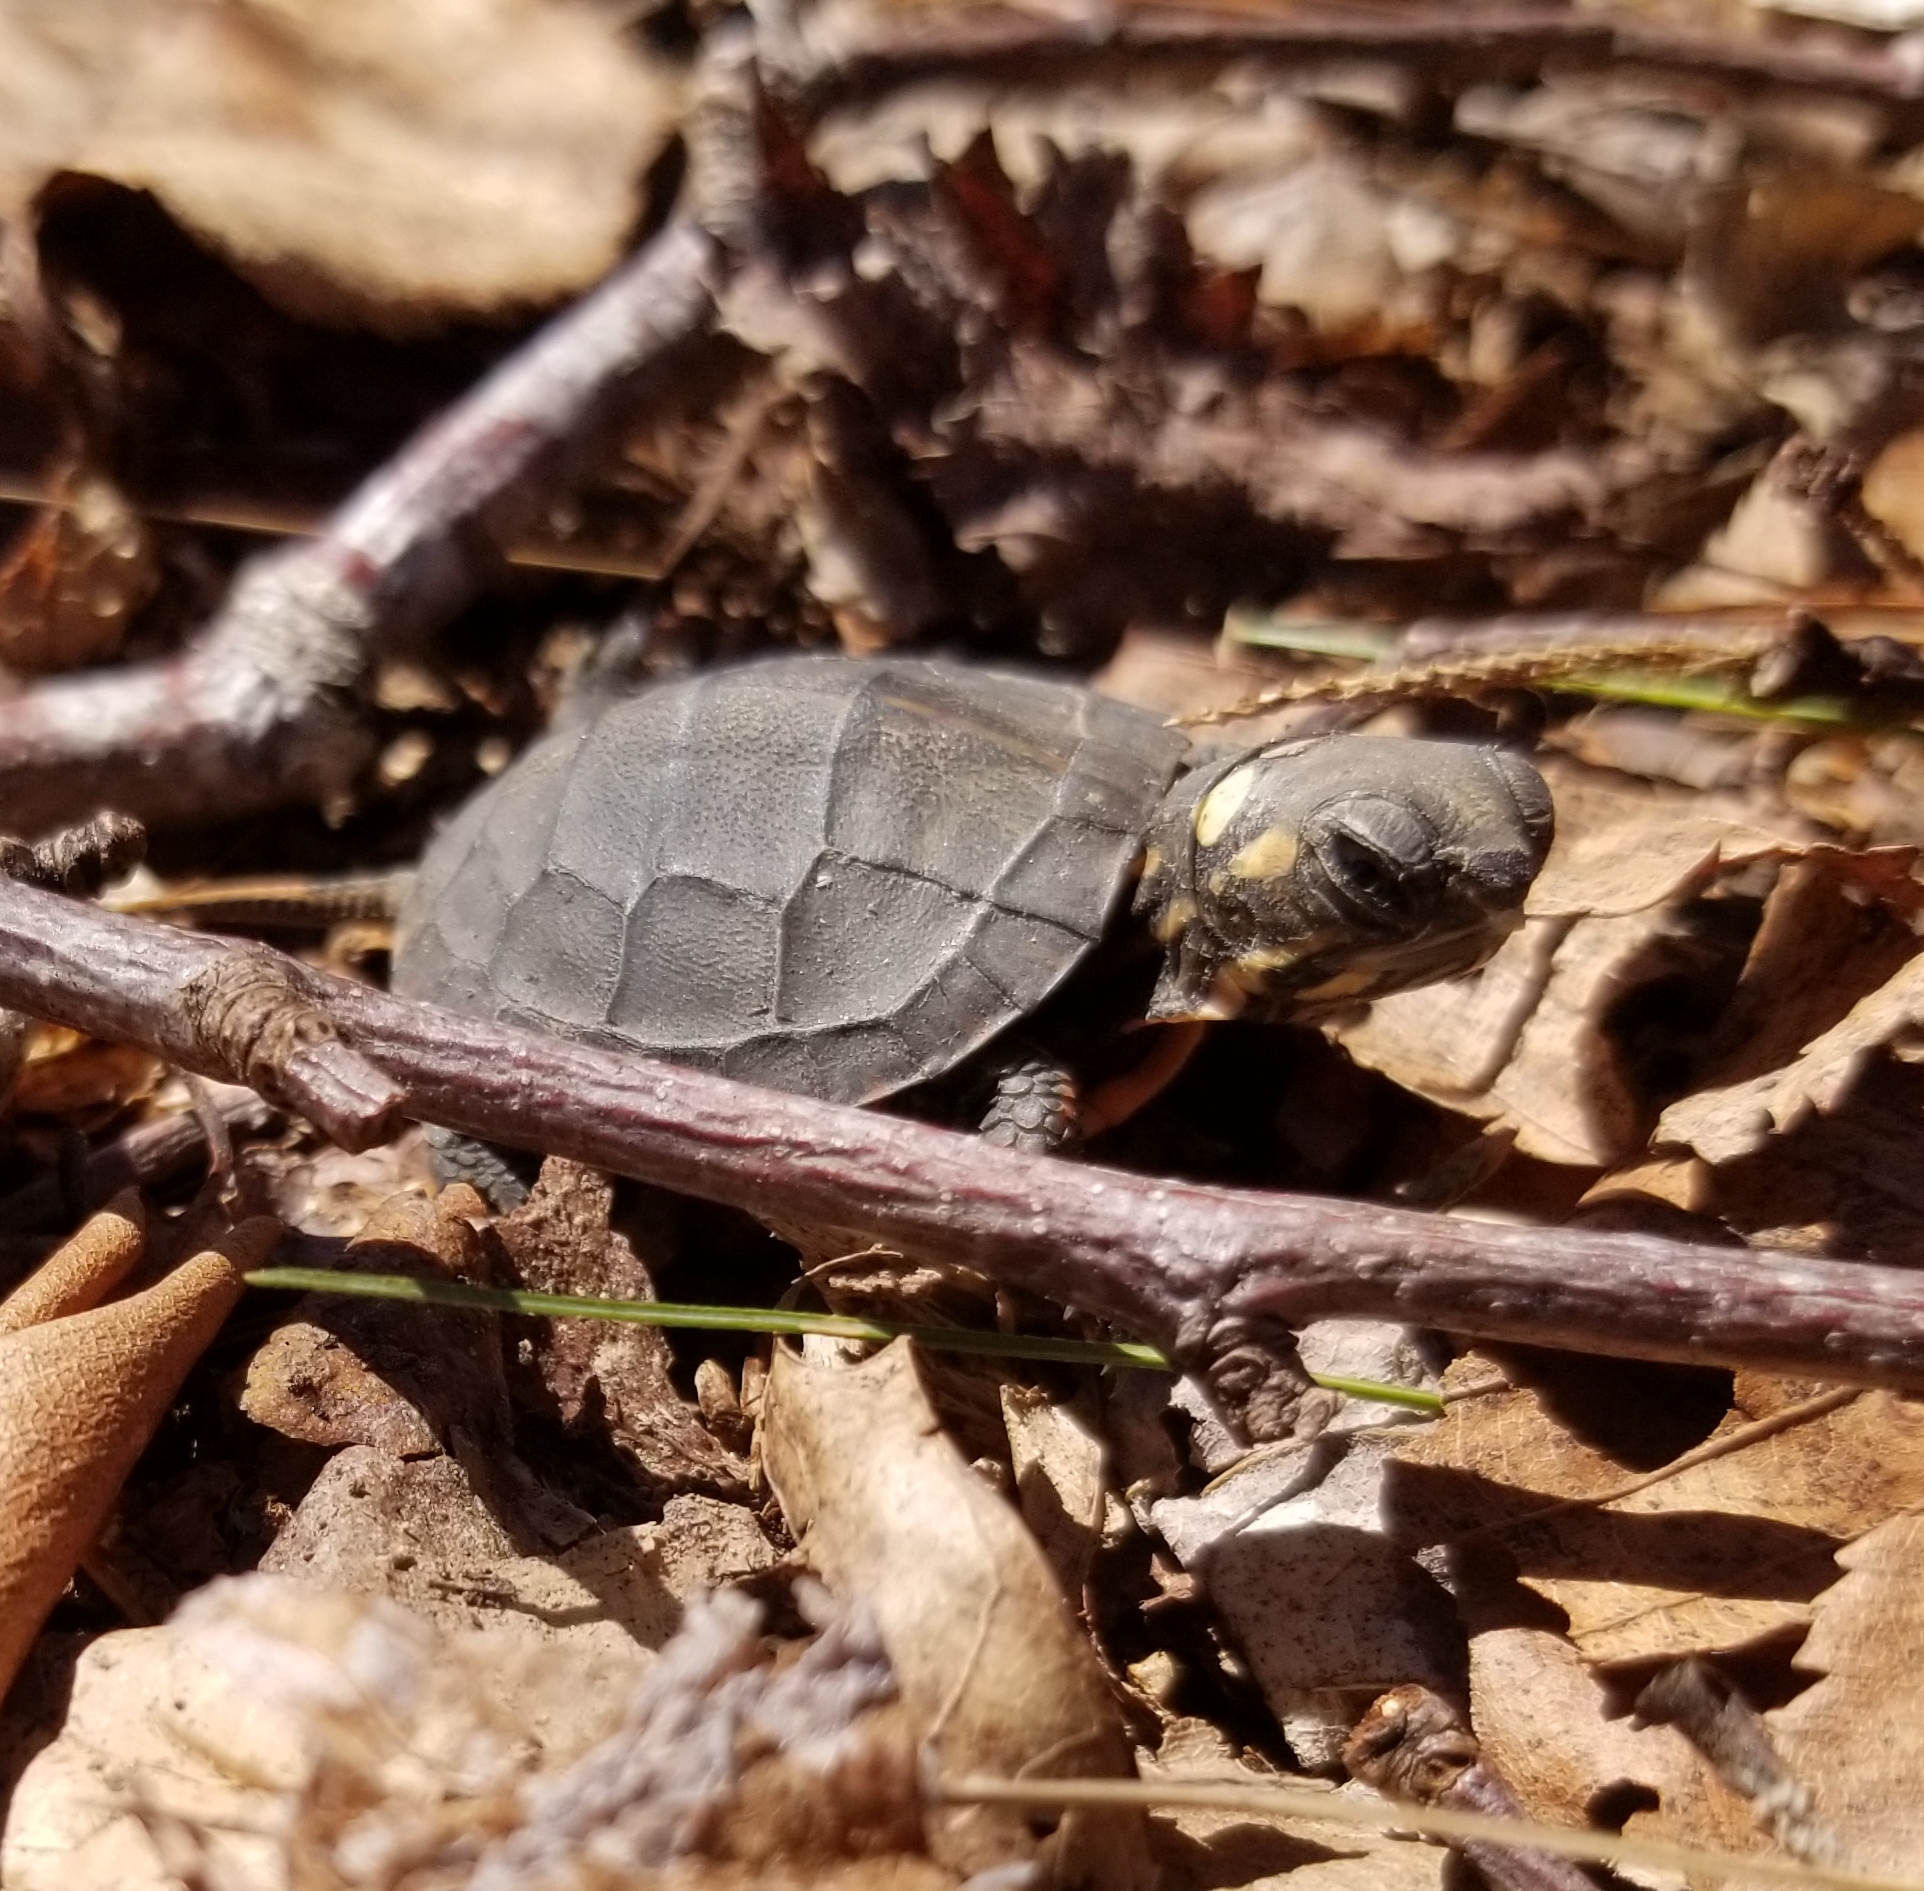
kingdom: Animalia
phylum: Chordata
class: Testudines
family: Emydidae
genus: Chrysemys
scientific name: Chrysemys picta
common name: Painted turtle
